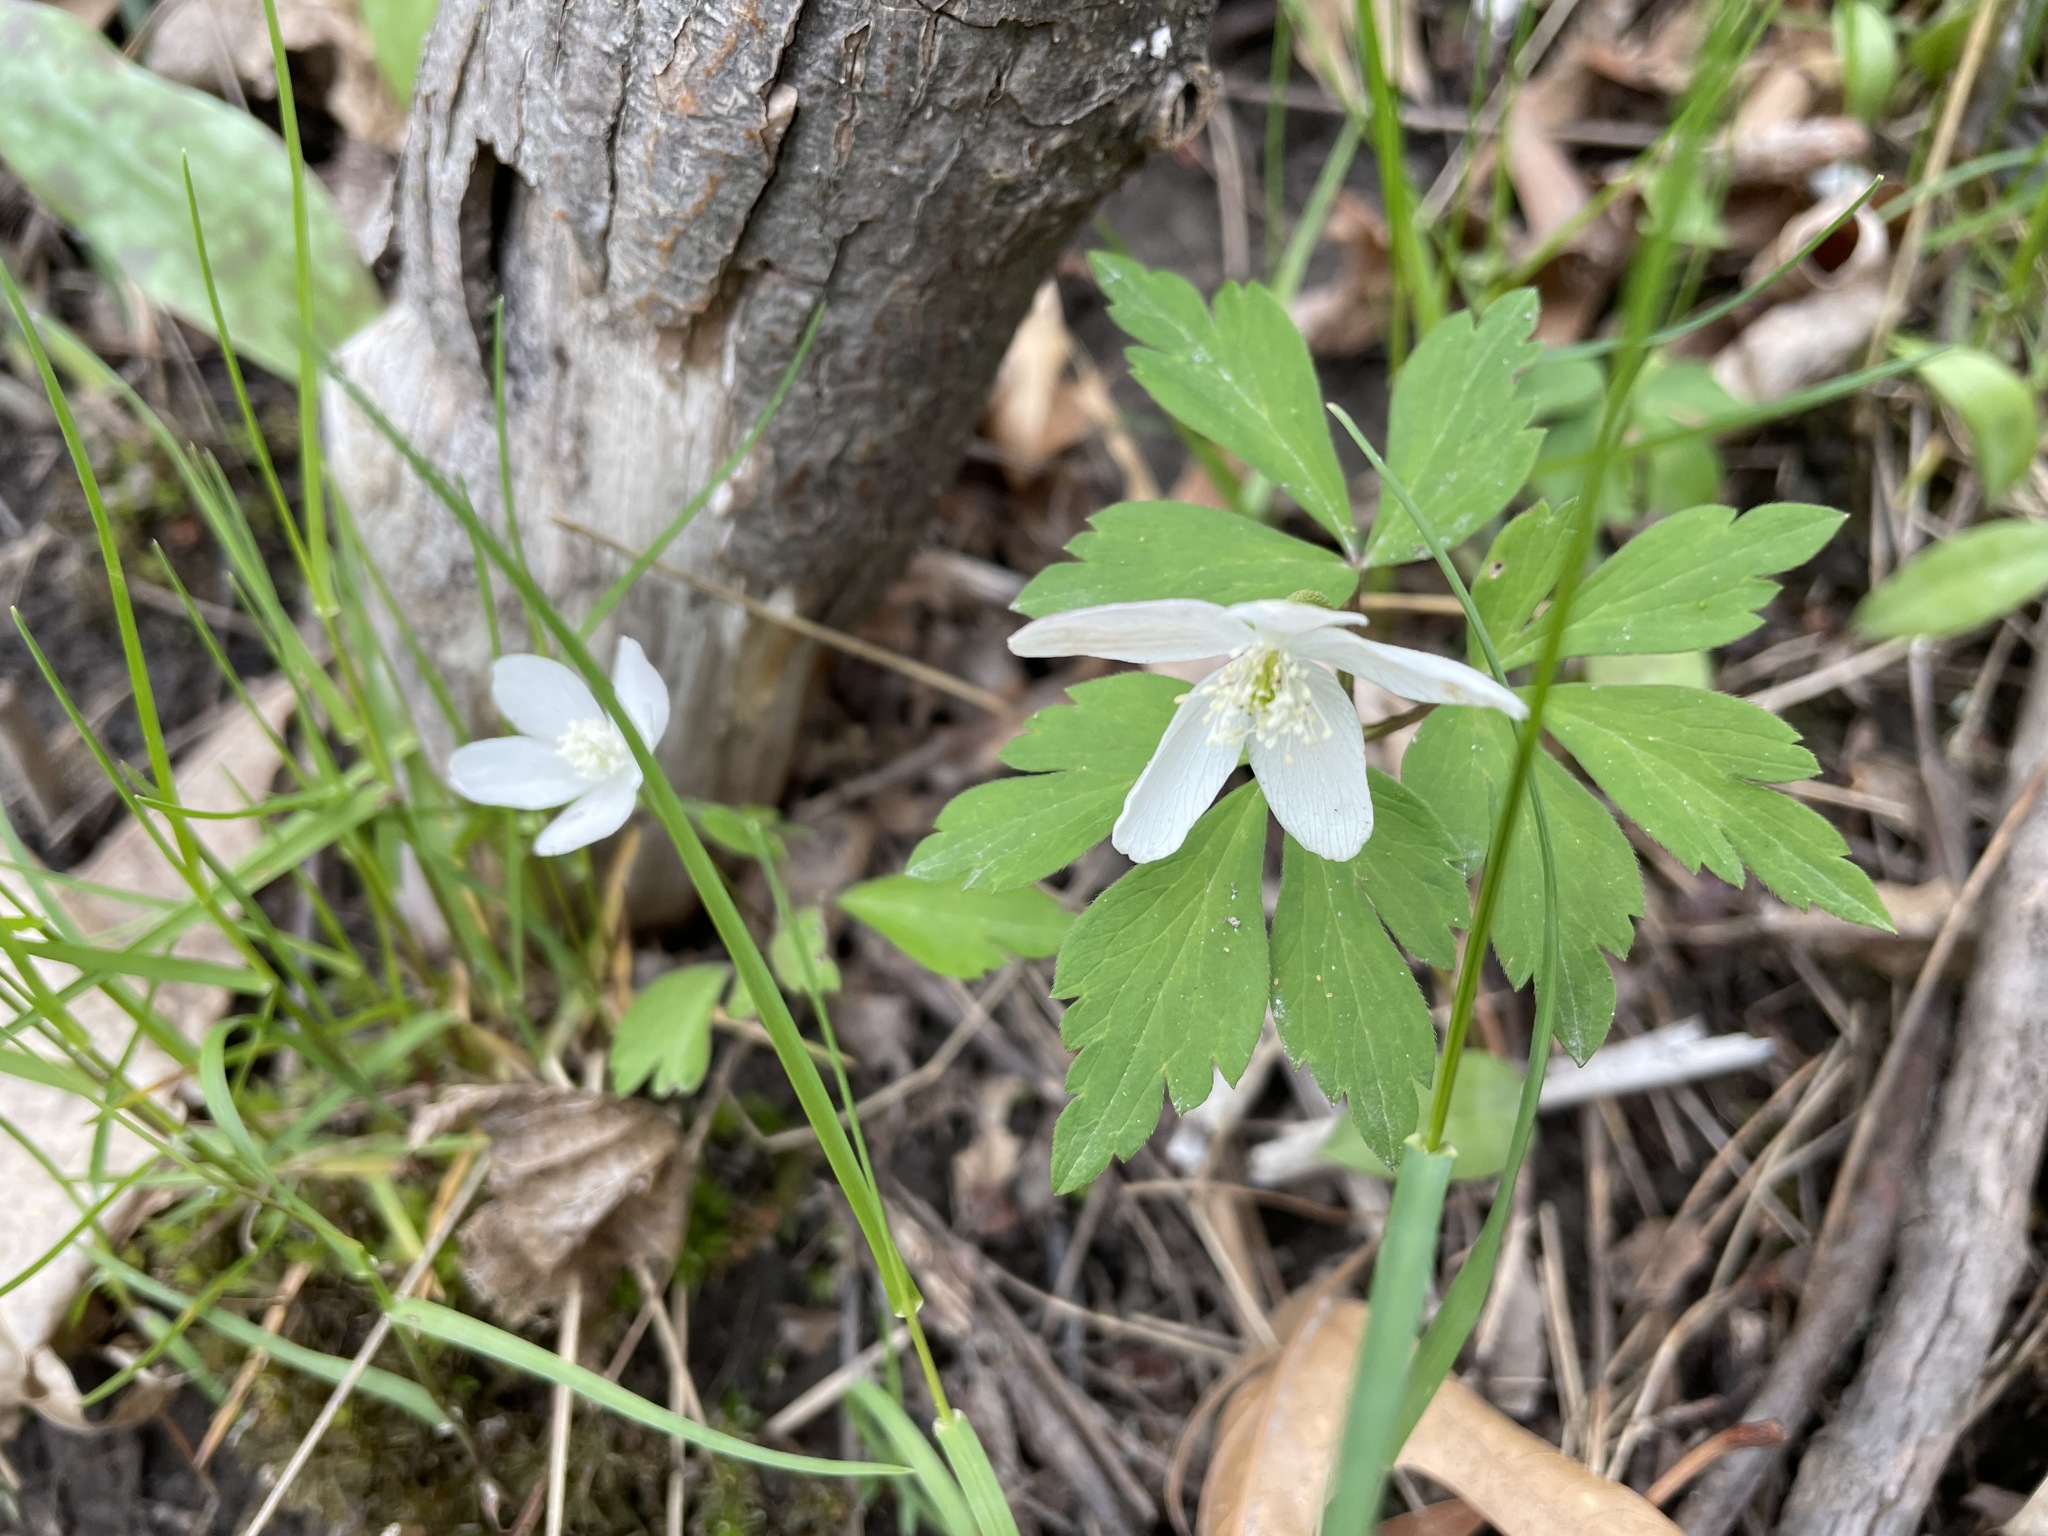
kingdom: Plantae
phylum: Tracheophyta
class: Magnoliopsida
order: Ranunculales
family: Ranunculaceae
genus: Anemone
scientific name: Anemone quinquefolia
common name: Wood anemone
